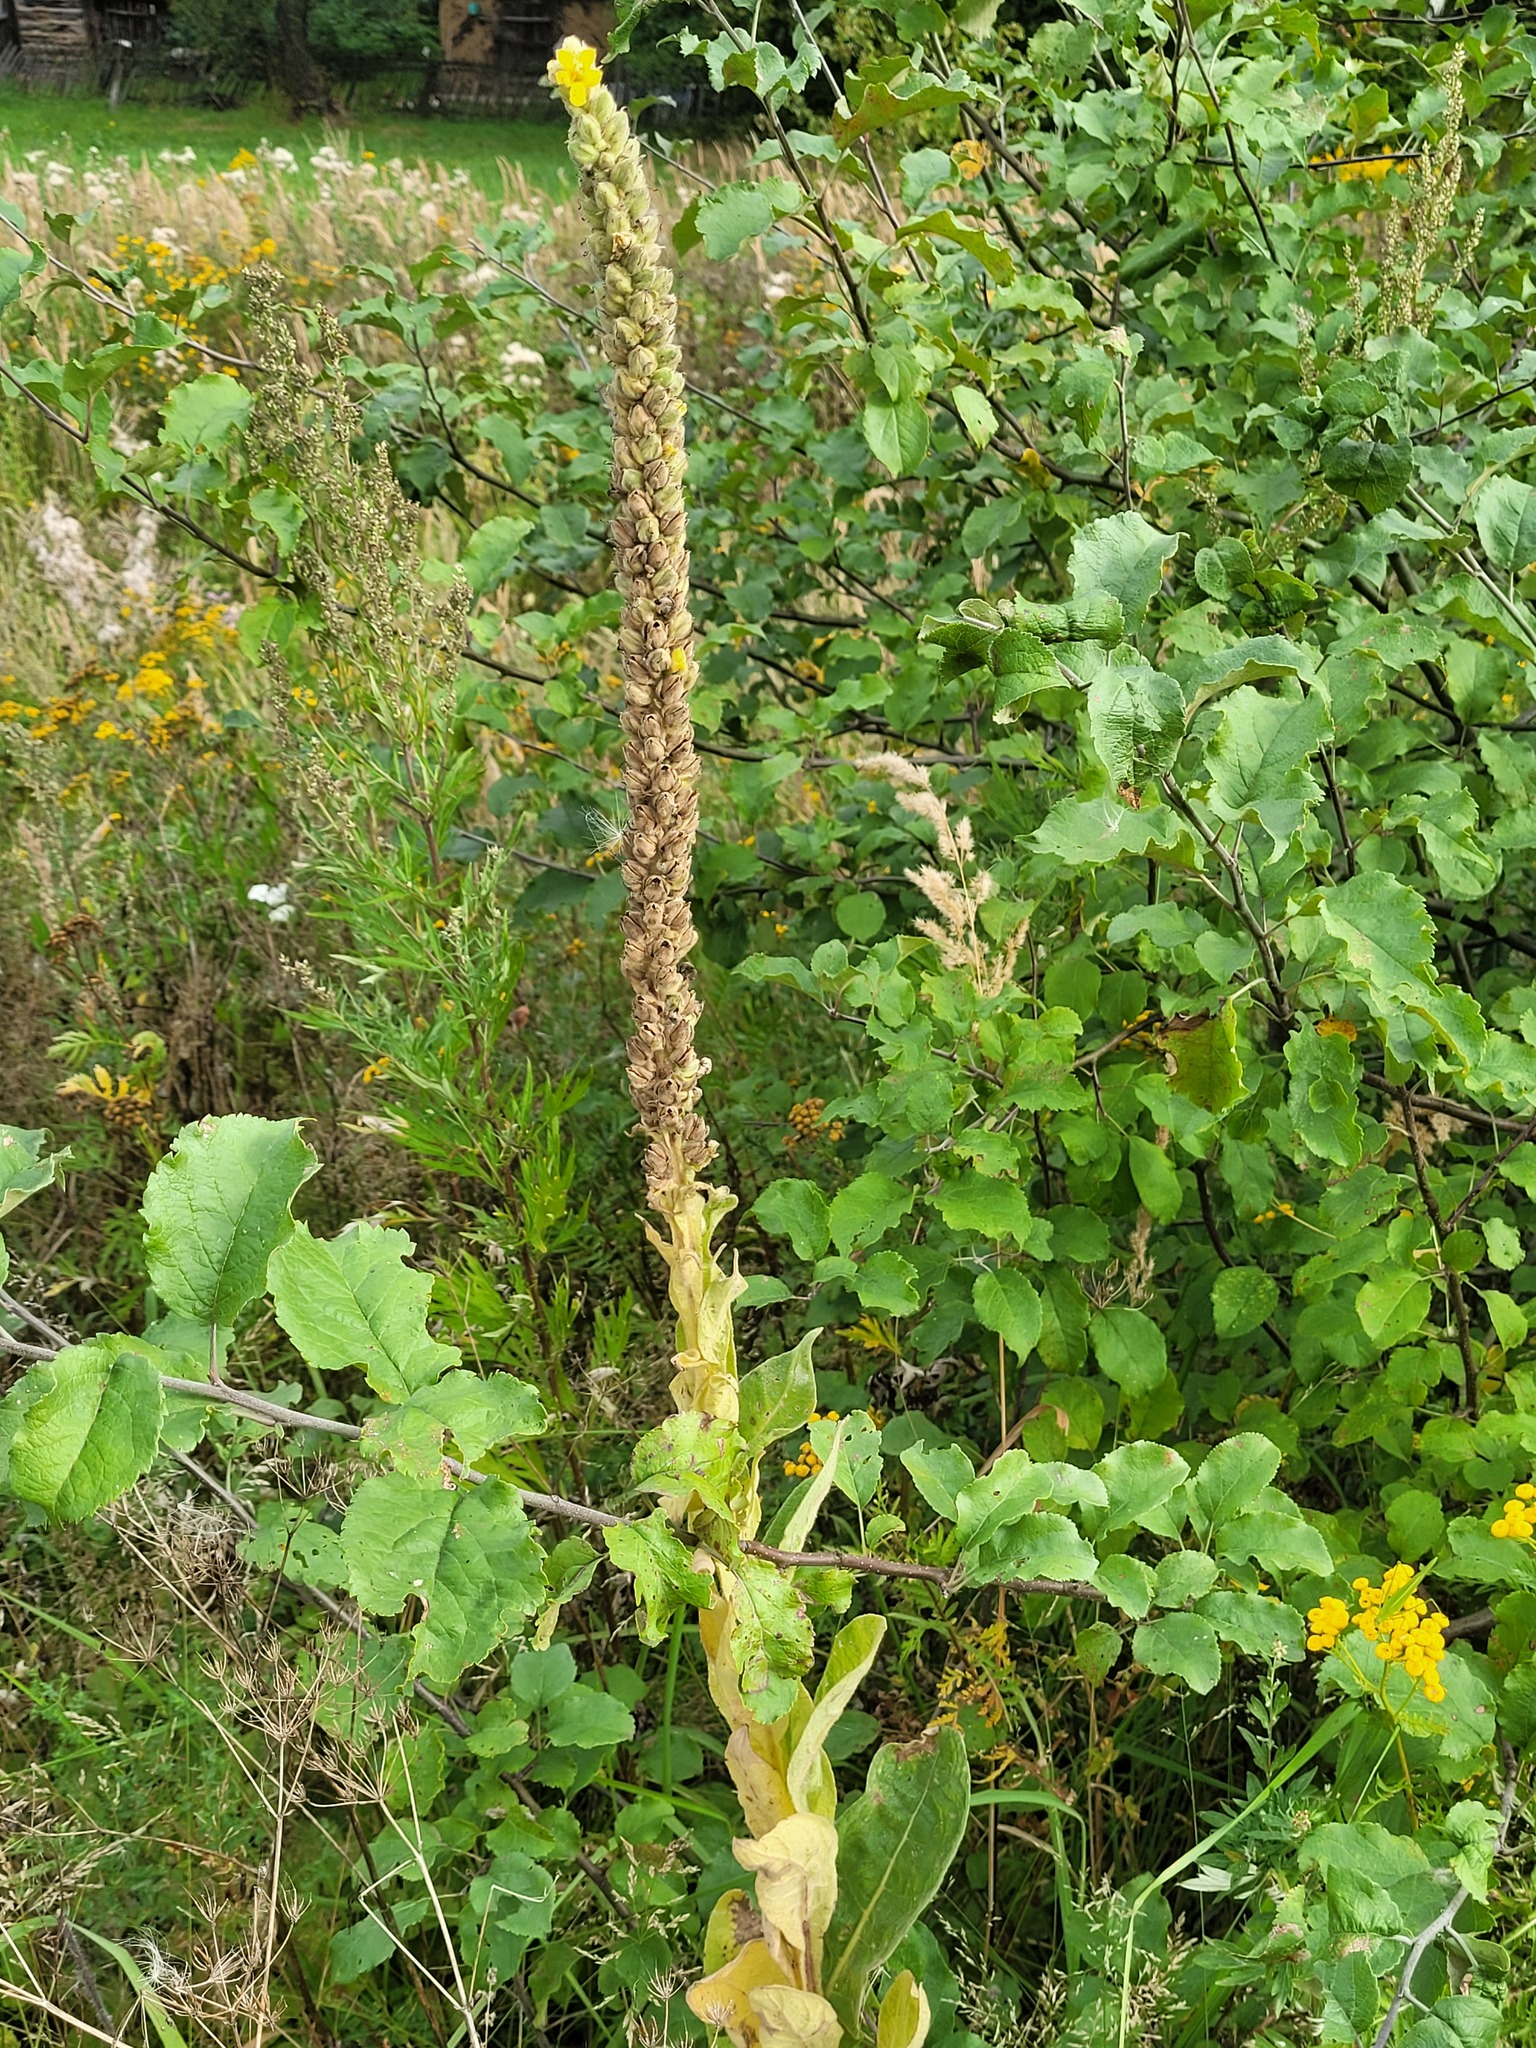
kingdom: Plantae
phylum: Tracheophyta
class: Magnoliopsida
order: Lamiales
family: Scrophulariaceae
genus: Verbascum
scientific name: Verbascum thapsus
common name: Common mullein
